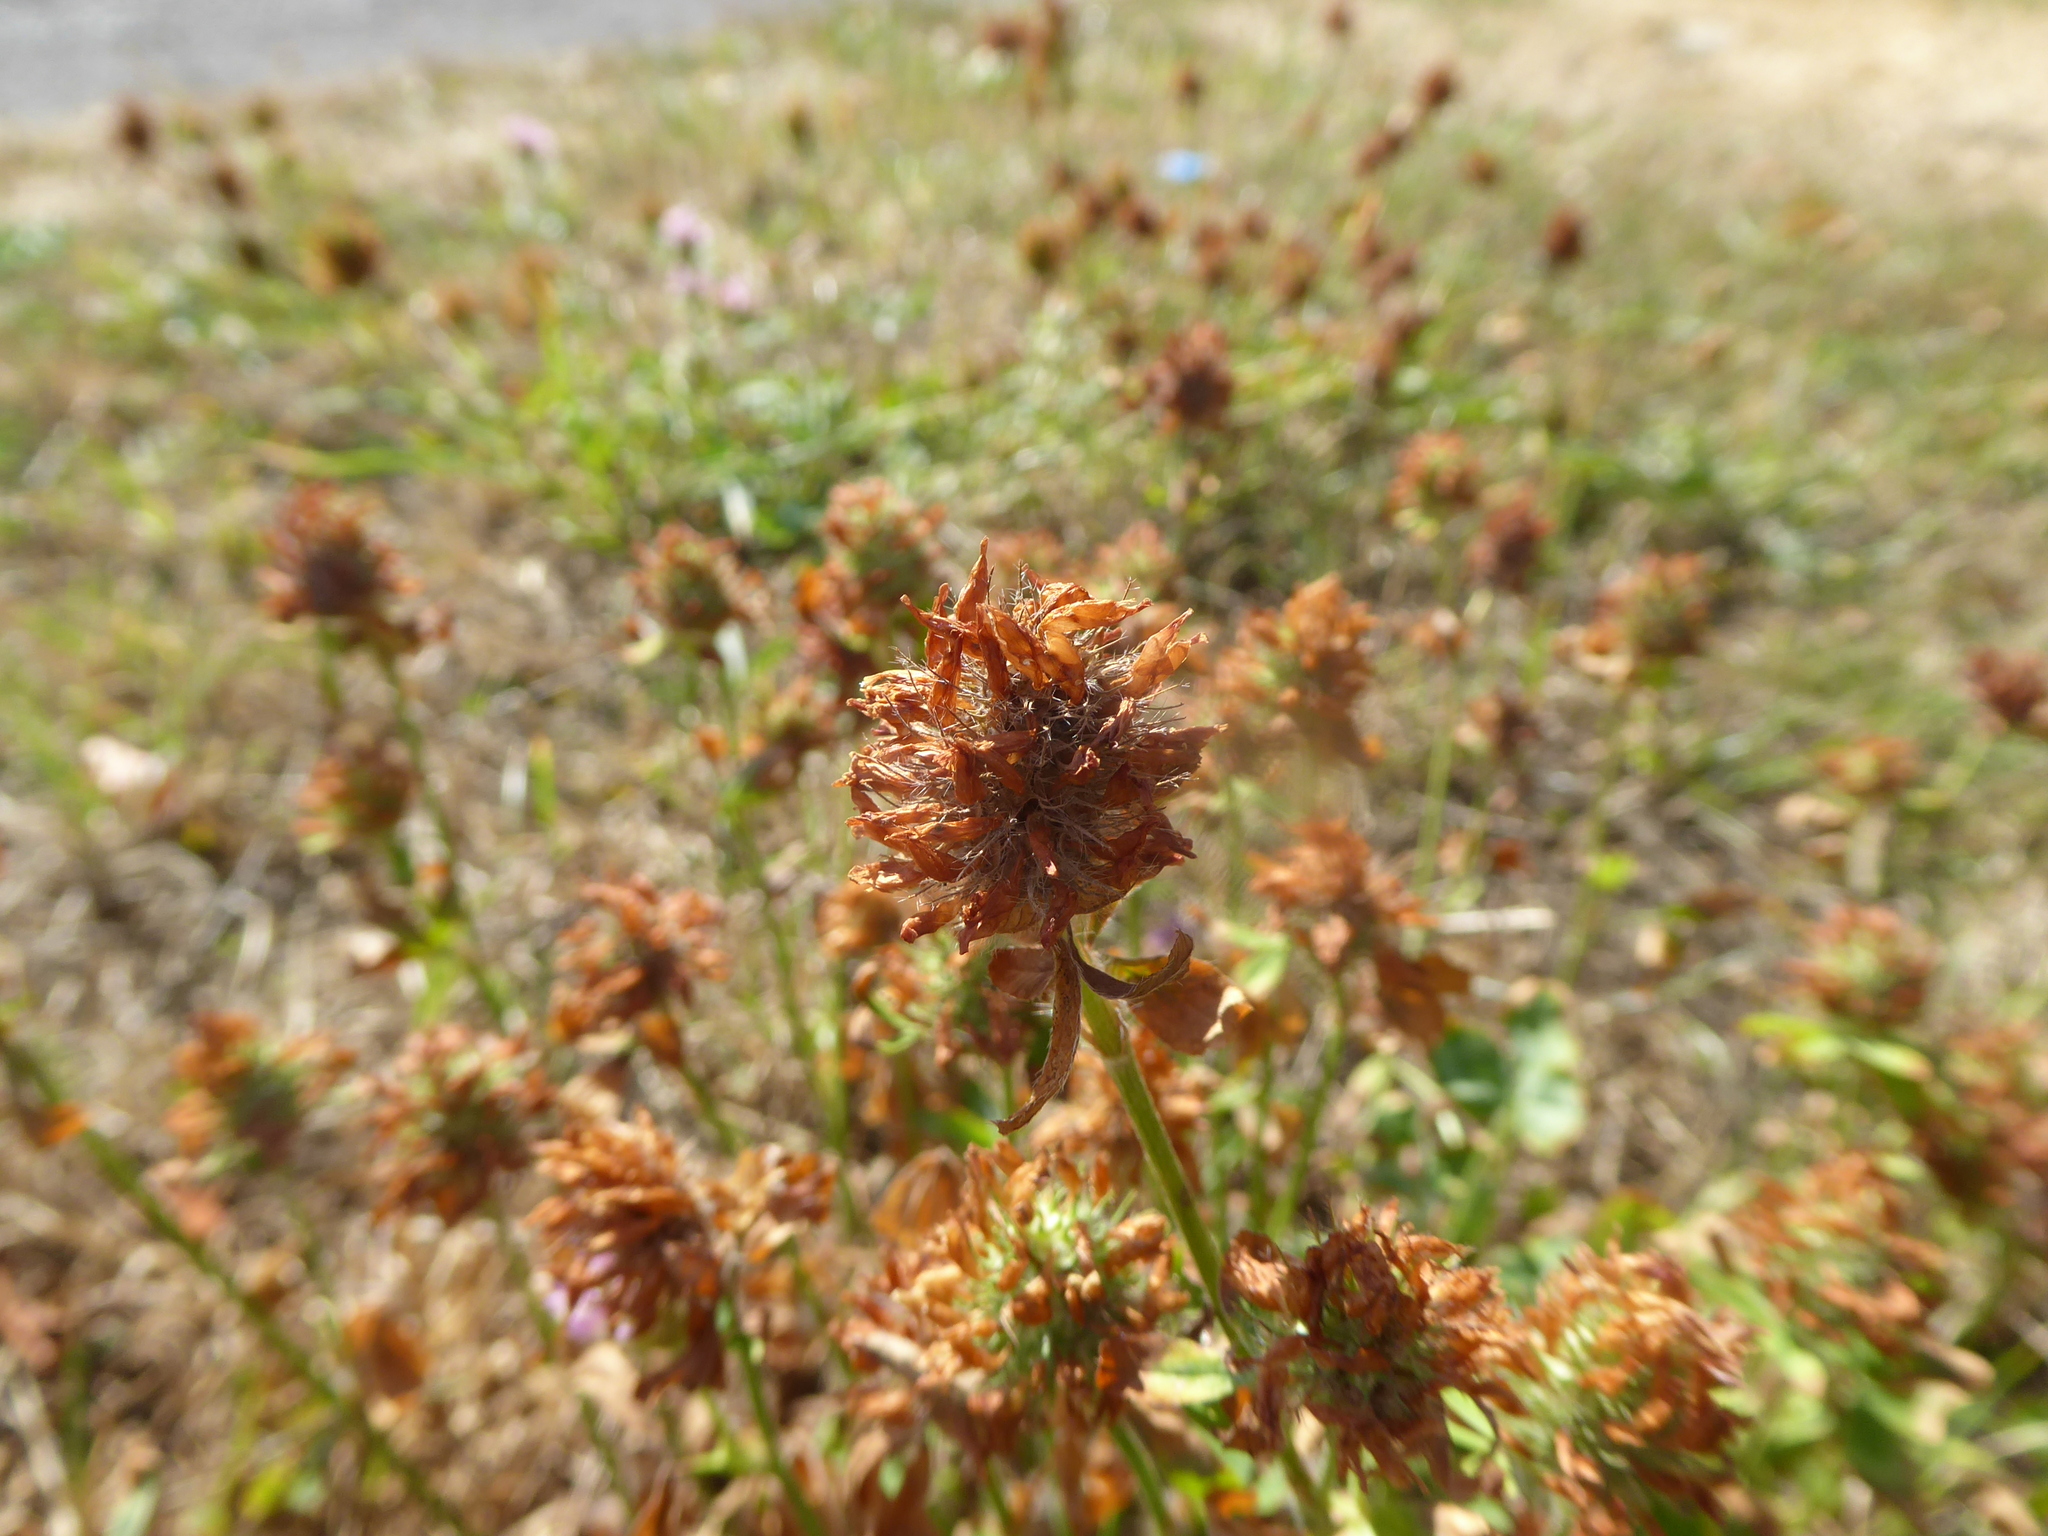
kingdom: Plantae
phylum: Tracheophyta
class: Magnoliopsida
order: Fabales
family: Fabaceae
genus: Trifolium
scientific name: Trifolium pratense
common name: Red clover
